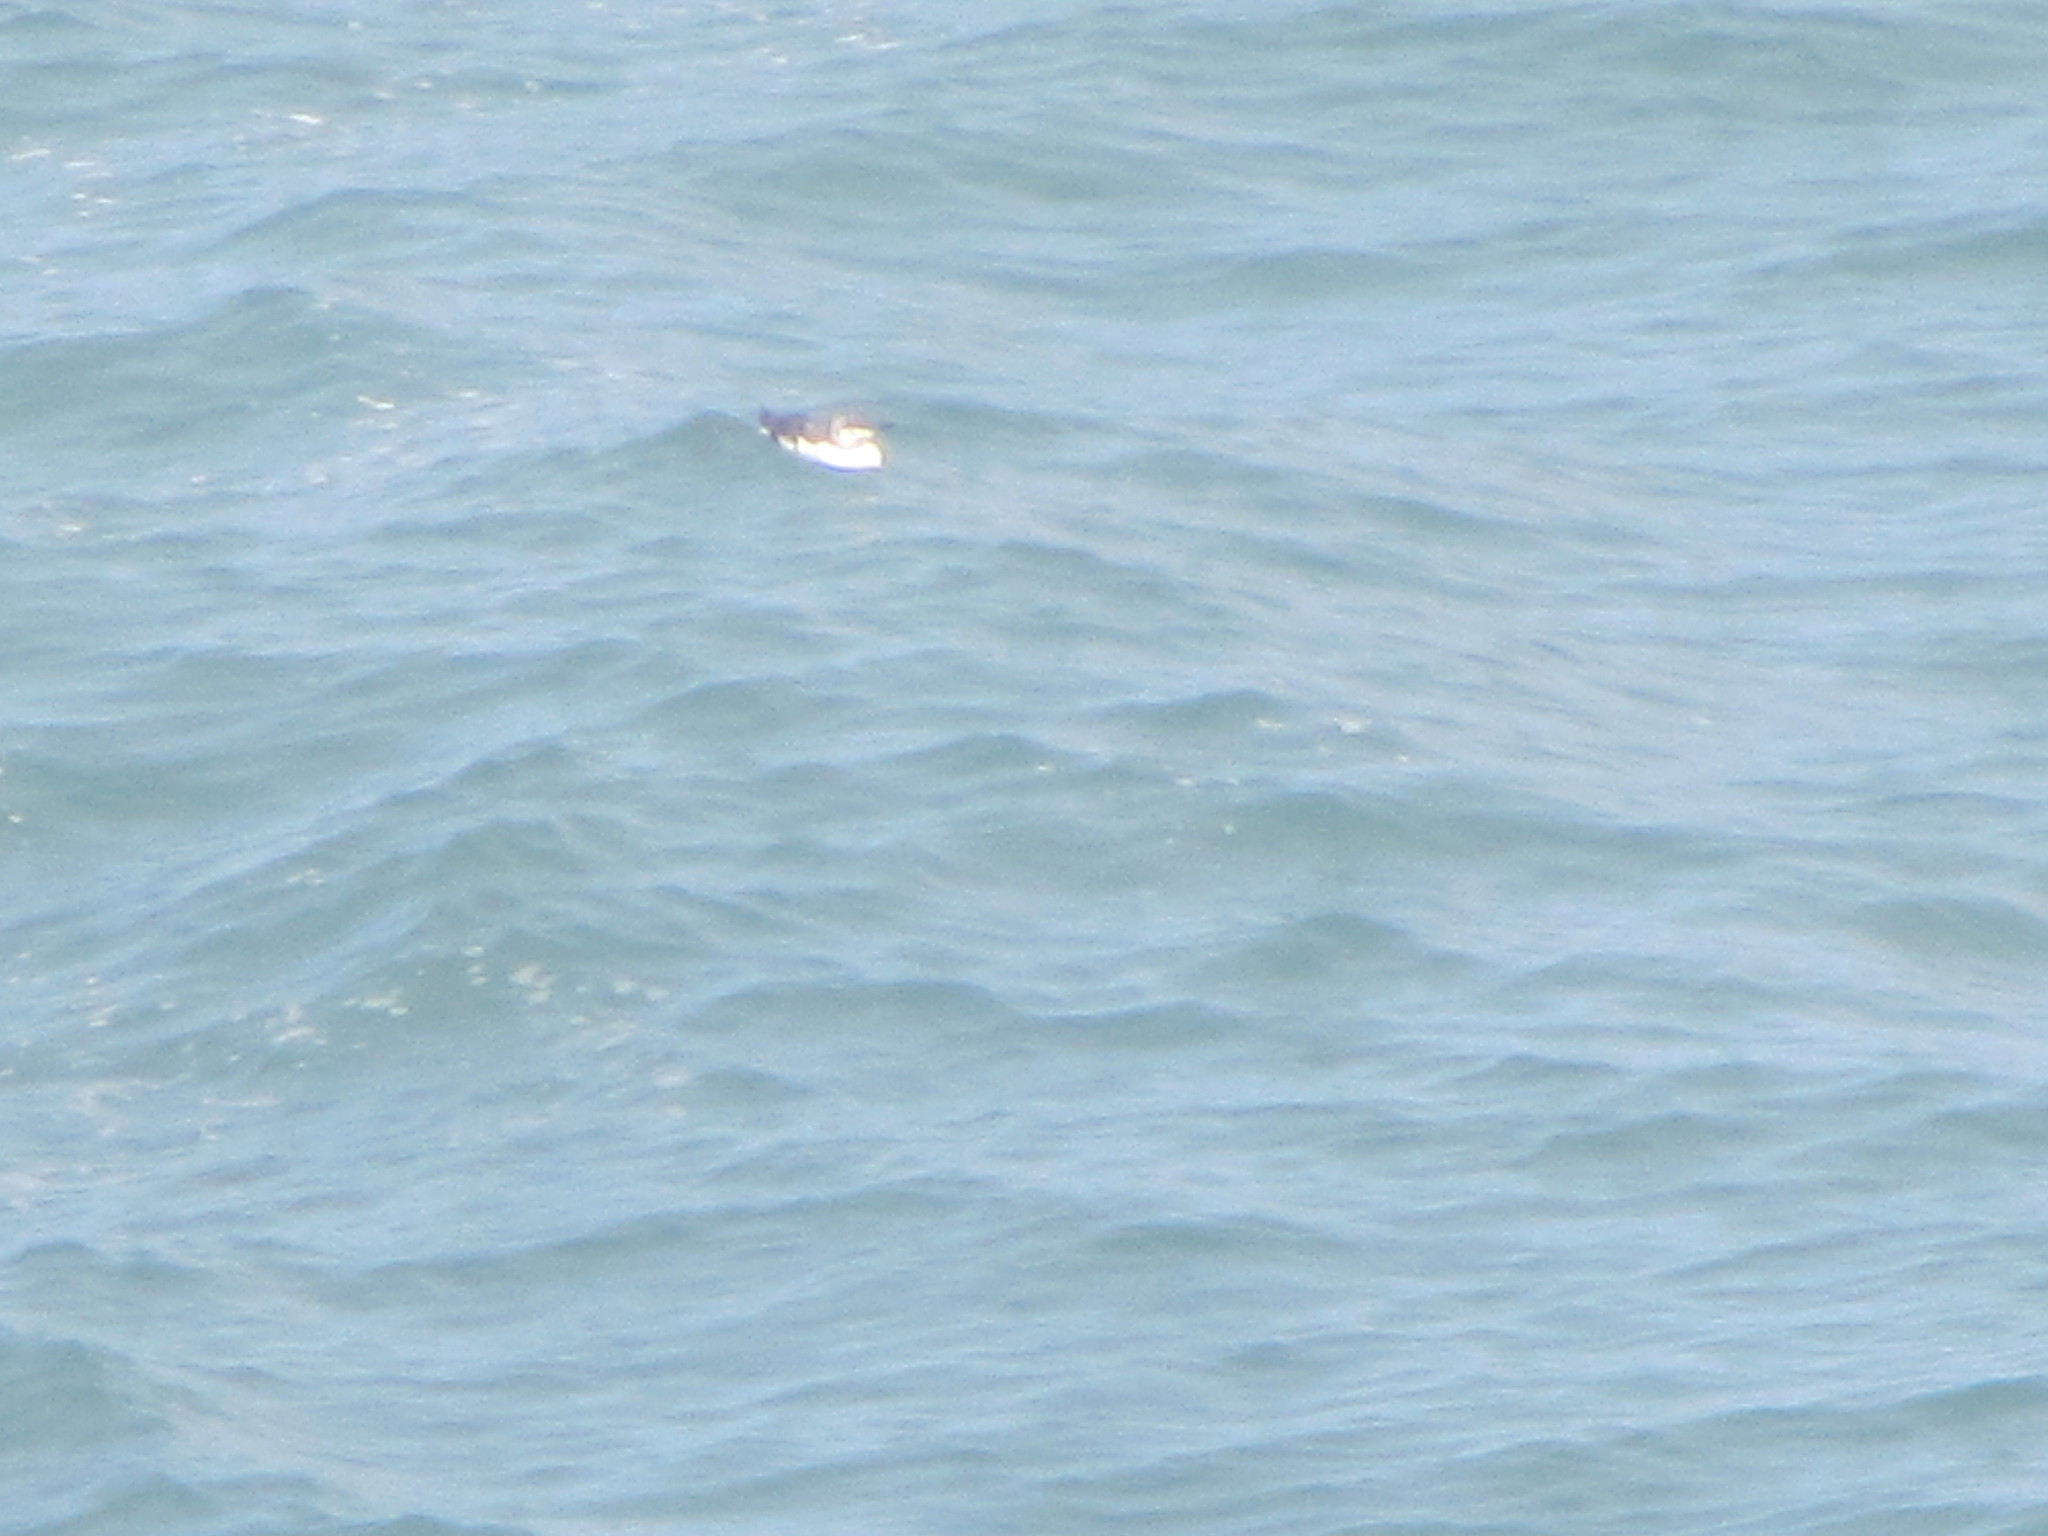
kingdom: Animalia
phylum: Chordata
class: Aves
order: Charadriiformes
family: Alcidae
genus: Uria
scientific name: Uria aalge
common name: Common murre
